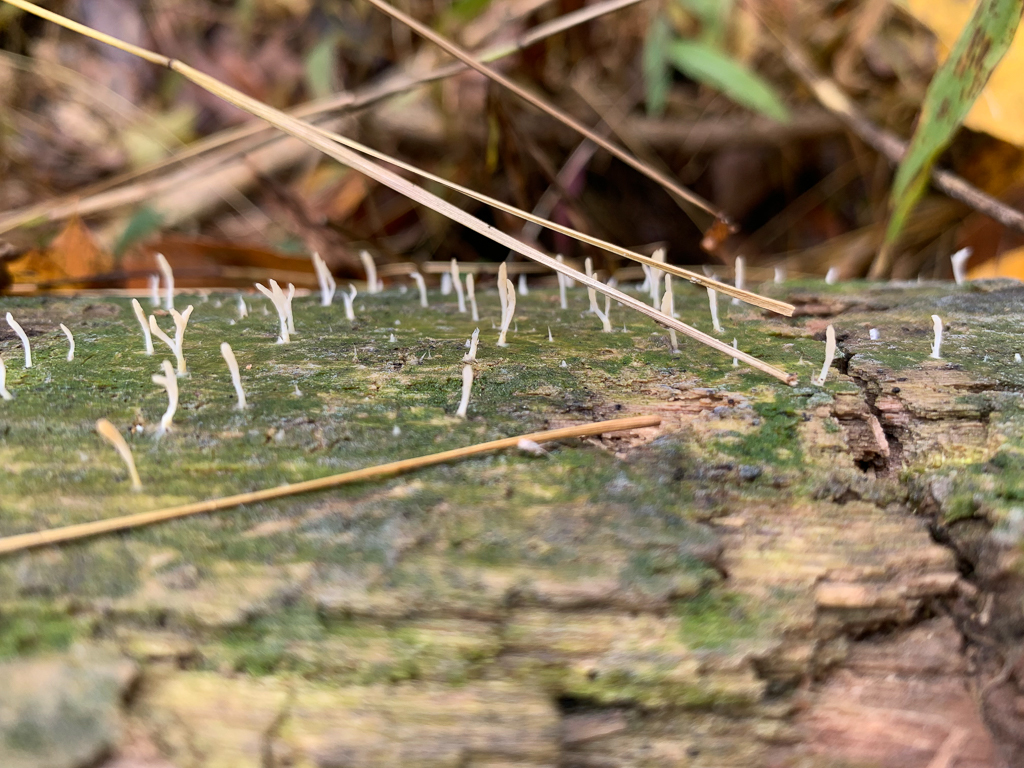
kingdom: Fungi
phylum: Basidiomycota
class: Agaricomycetes
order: Cantharellales
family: Hydnaceae
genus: Multiclavula
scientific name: Multiclavula mucida
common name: White green-algae coral
